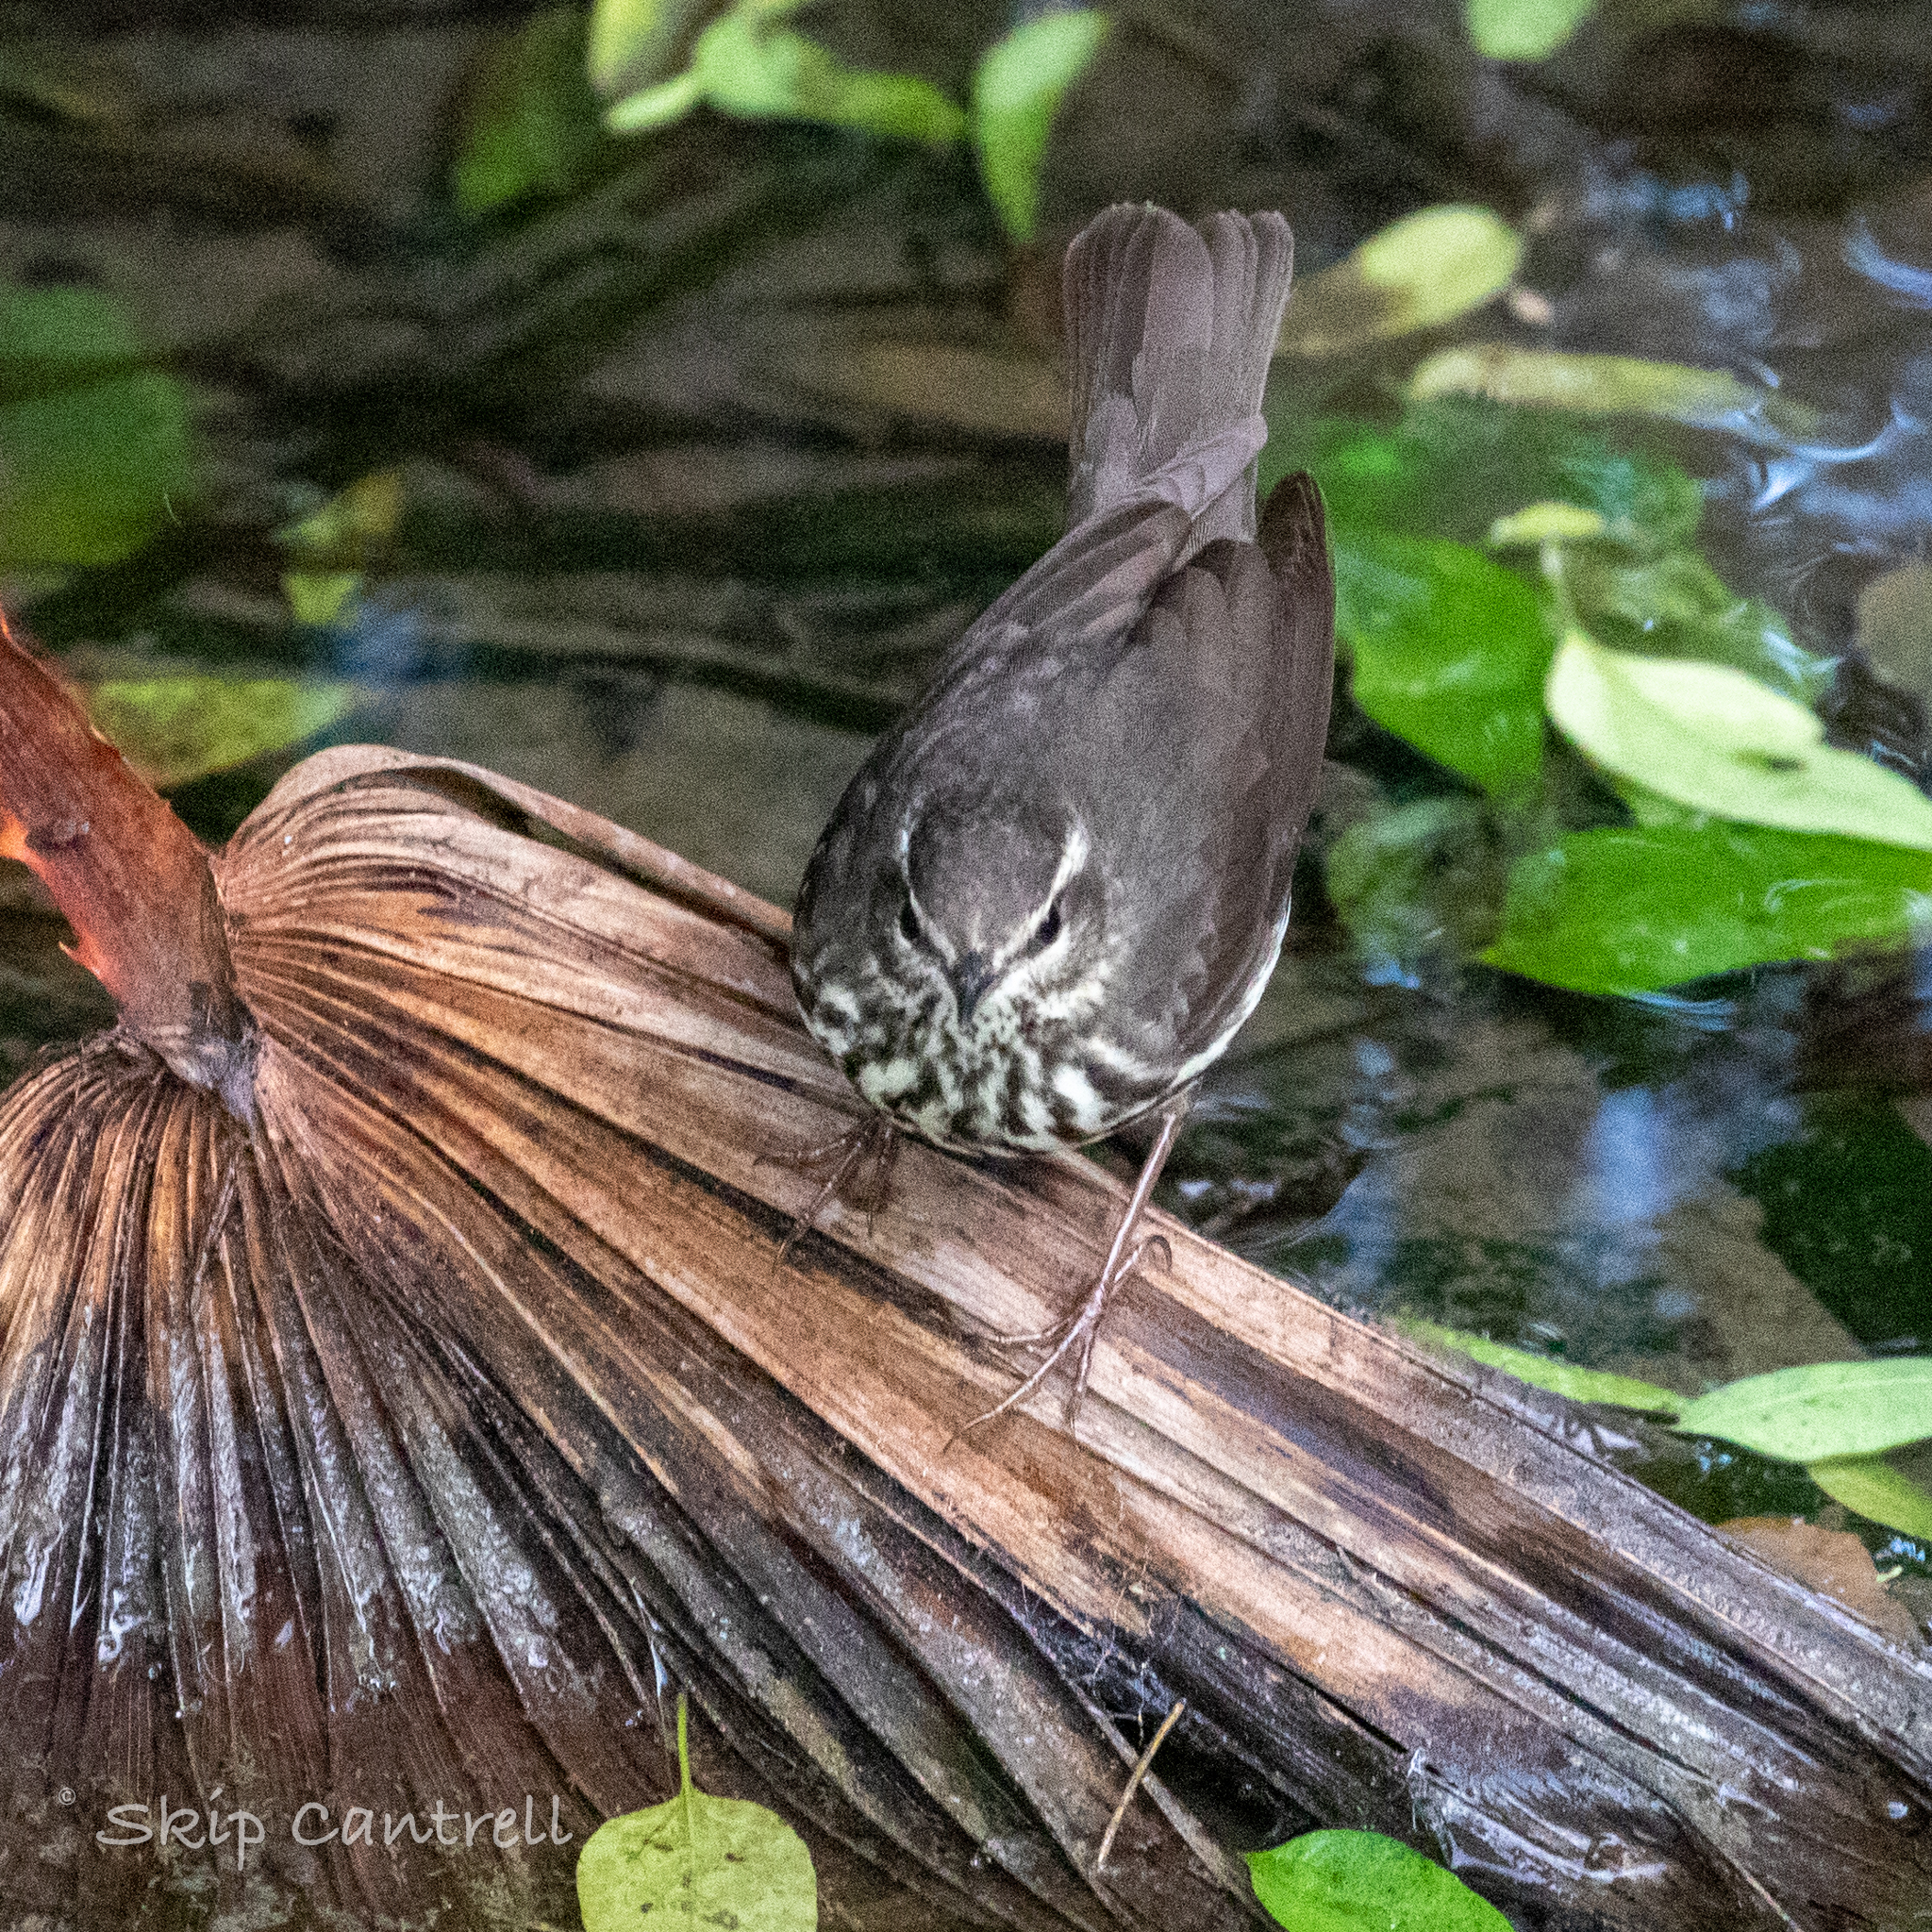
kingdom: Animalia
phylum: Chordata
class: Aves
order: Passeriformes
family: Parulidae
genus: Parkesia
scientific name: Parkesia noveboracensis
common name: Northern waterthrush
